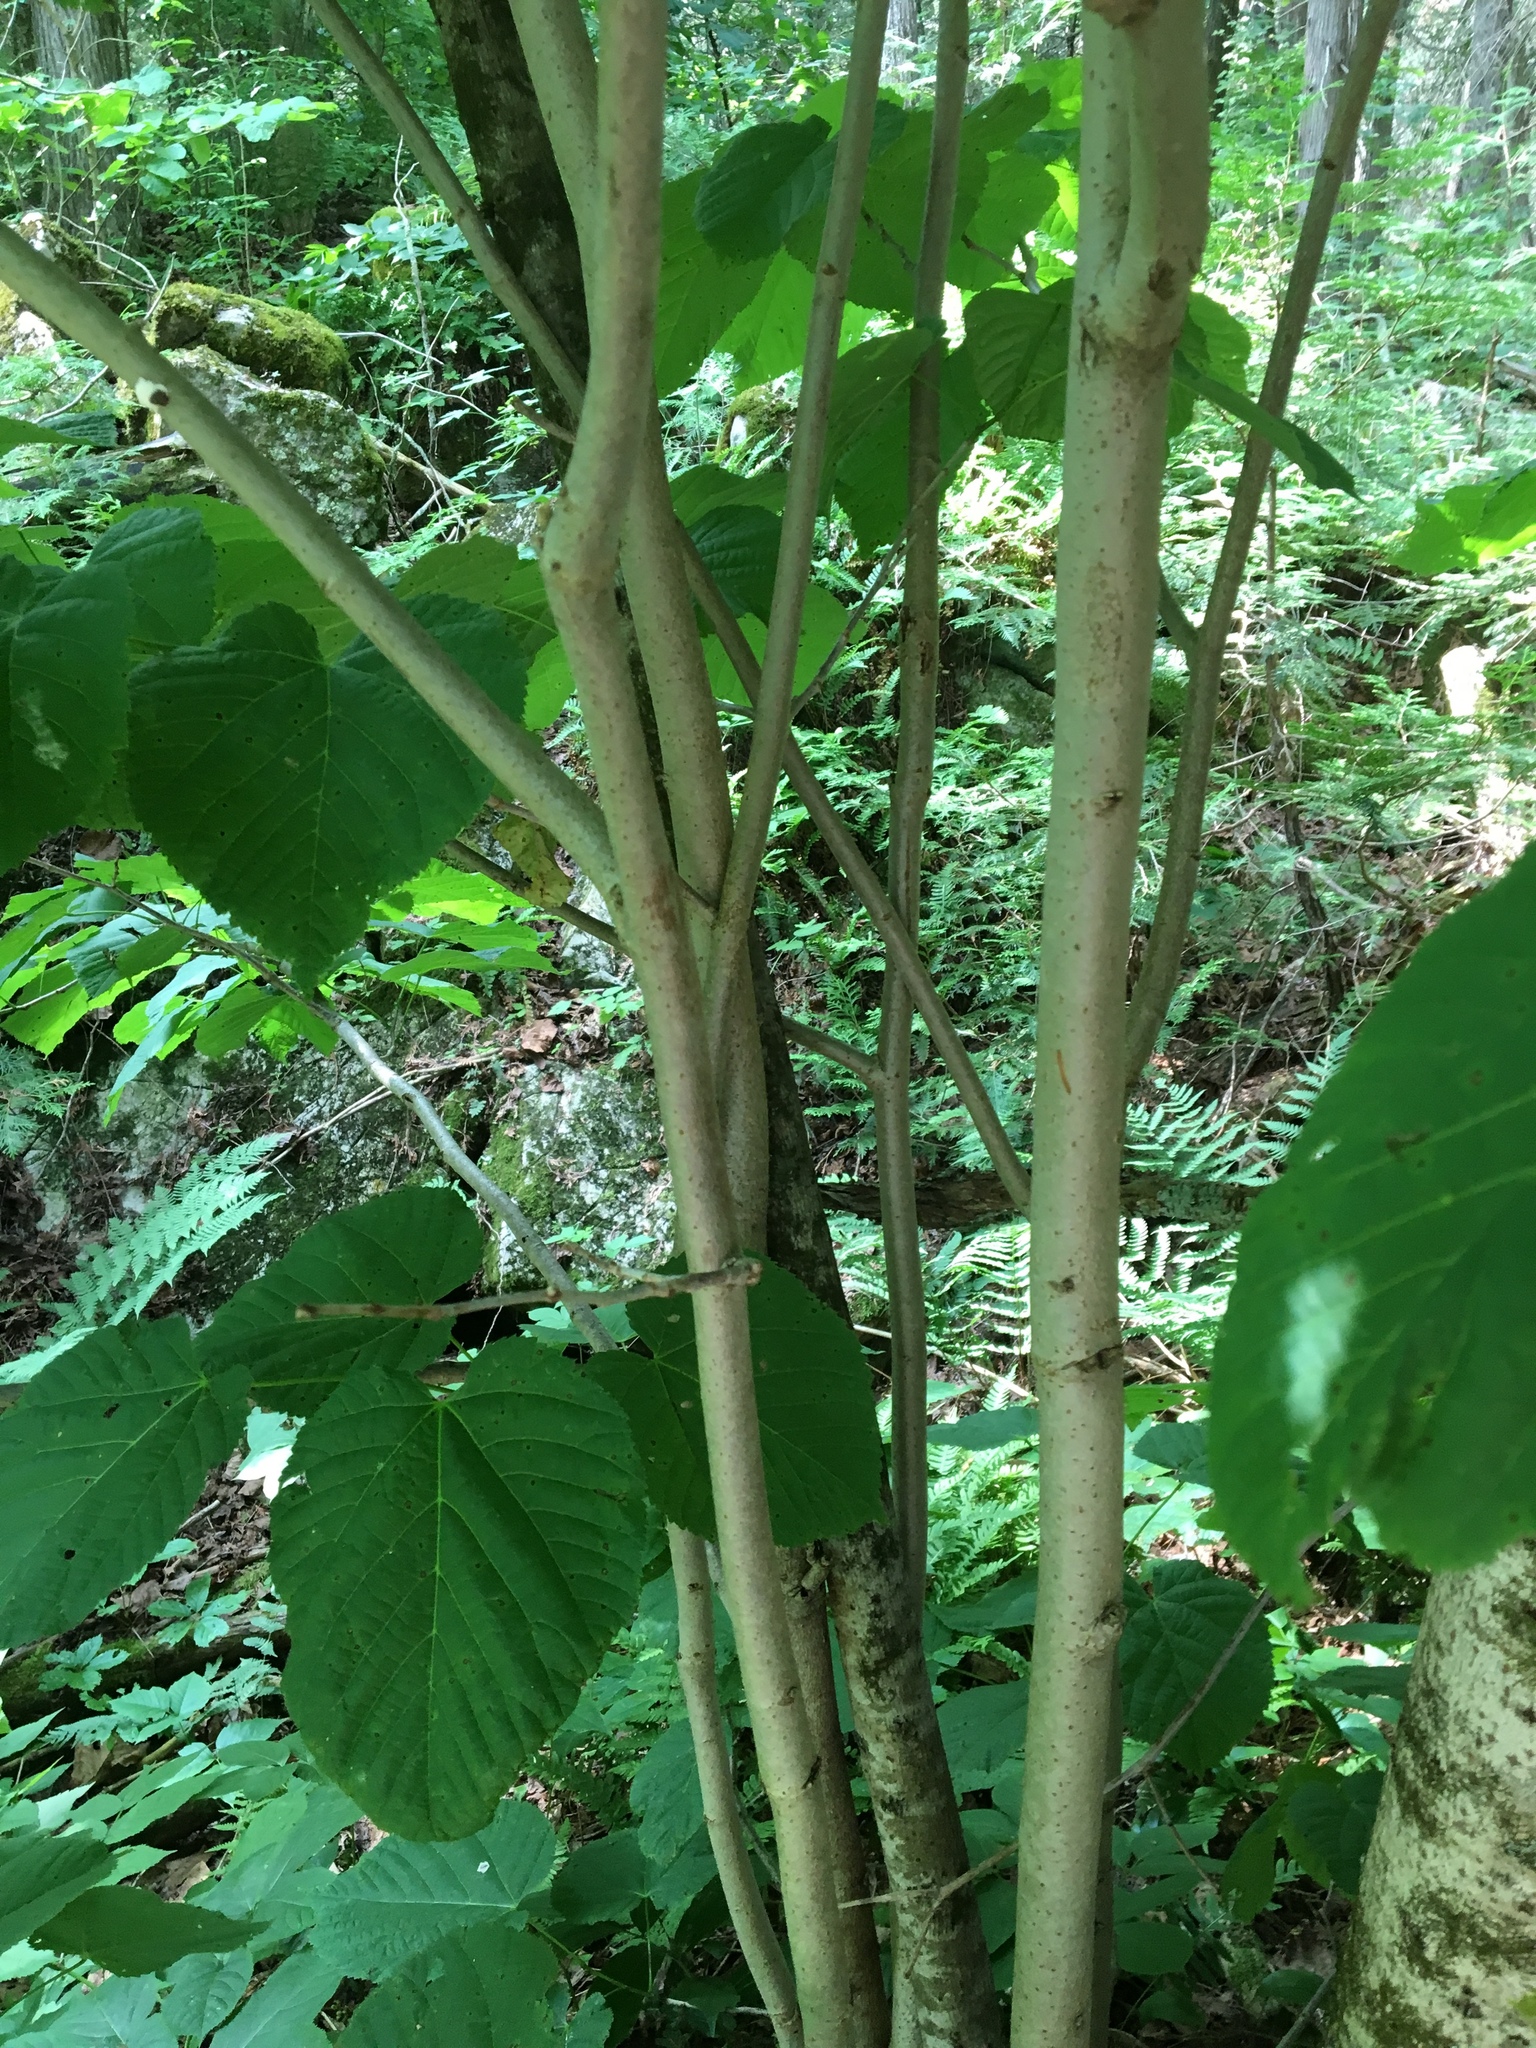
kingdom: Plantae
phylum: Tracheophyta
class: Magnoliopsida
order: Malvales
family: Malvaceae
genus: Tilia
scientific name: Tilia americana
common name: Basswood
